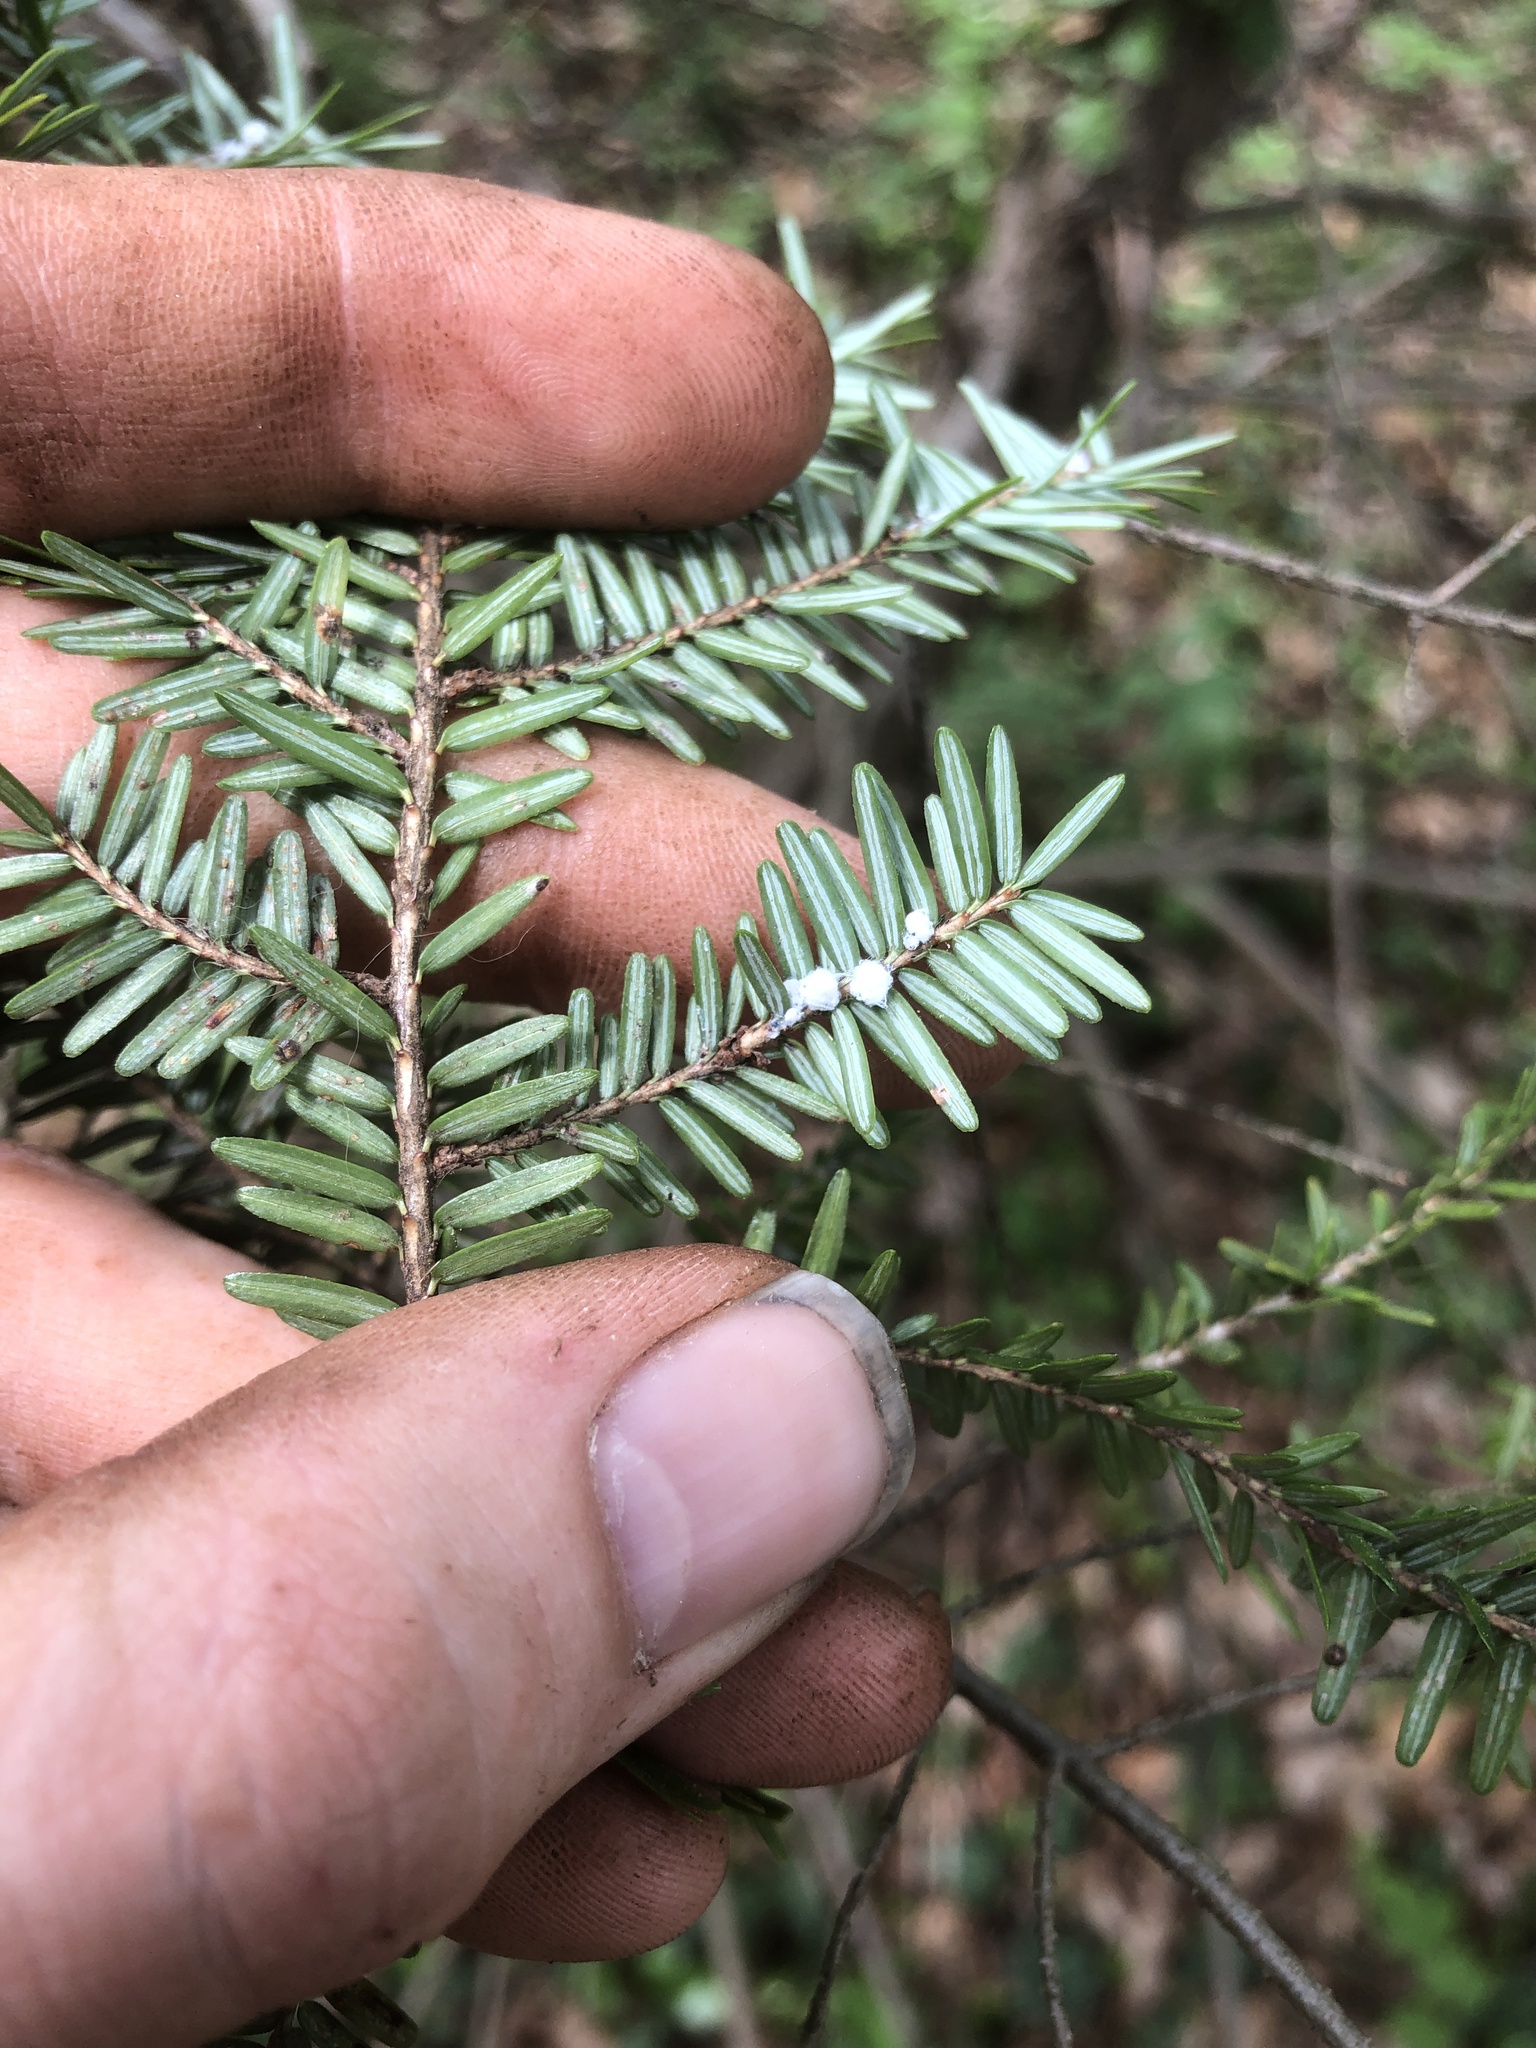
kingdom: Animalia
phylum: Arthropoda
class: Insecta
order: Hemiptera
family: Adelgidae
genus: Adelges
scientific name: Adelges tsugae
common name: Hemlock woolly adelgid
